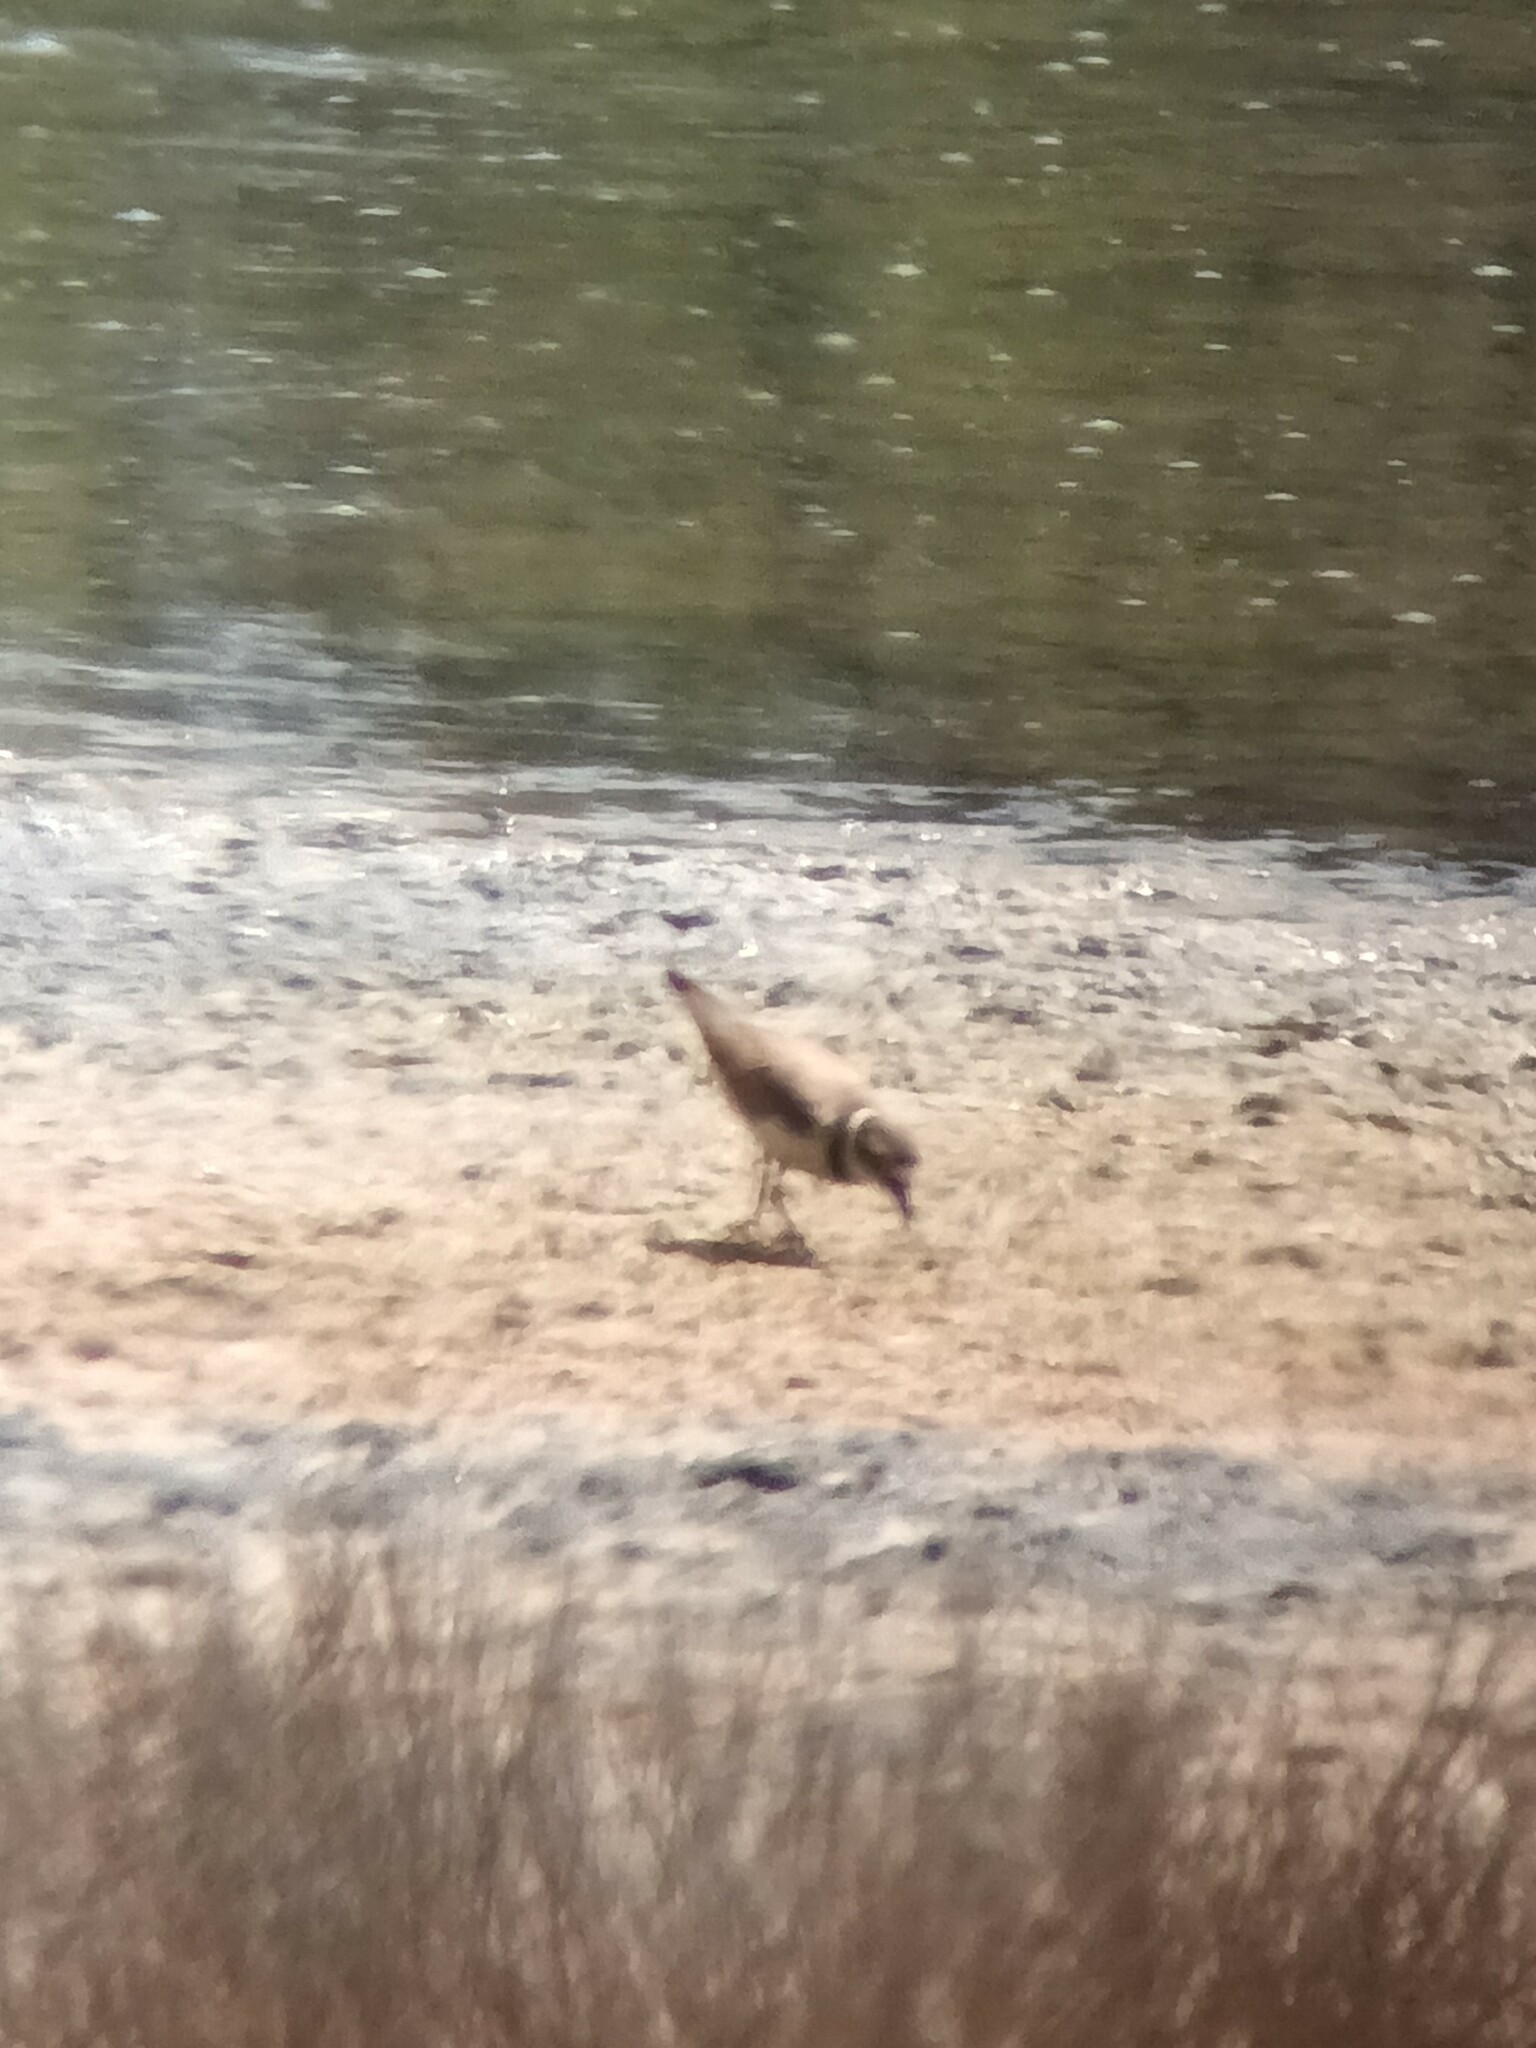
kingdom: Animalia
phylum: Chordata
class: Aves
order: Charadriiformes
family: Charadriidae
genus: Charadrius
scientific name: Charadrius dubius
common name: Little ringed plover
